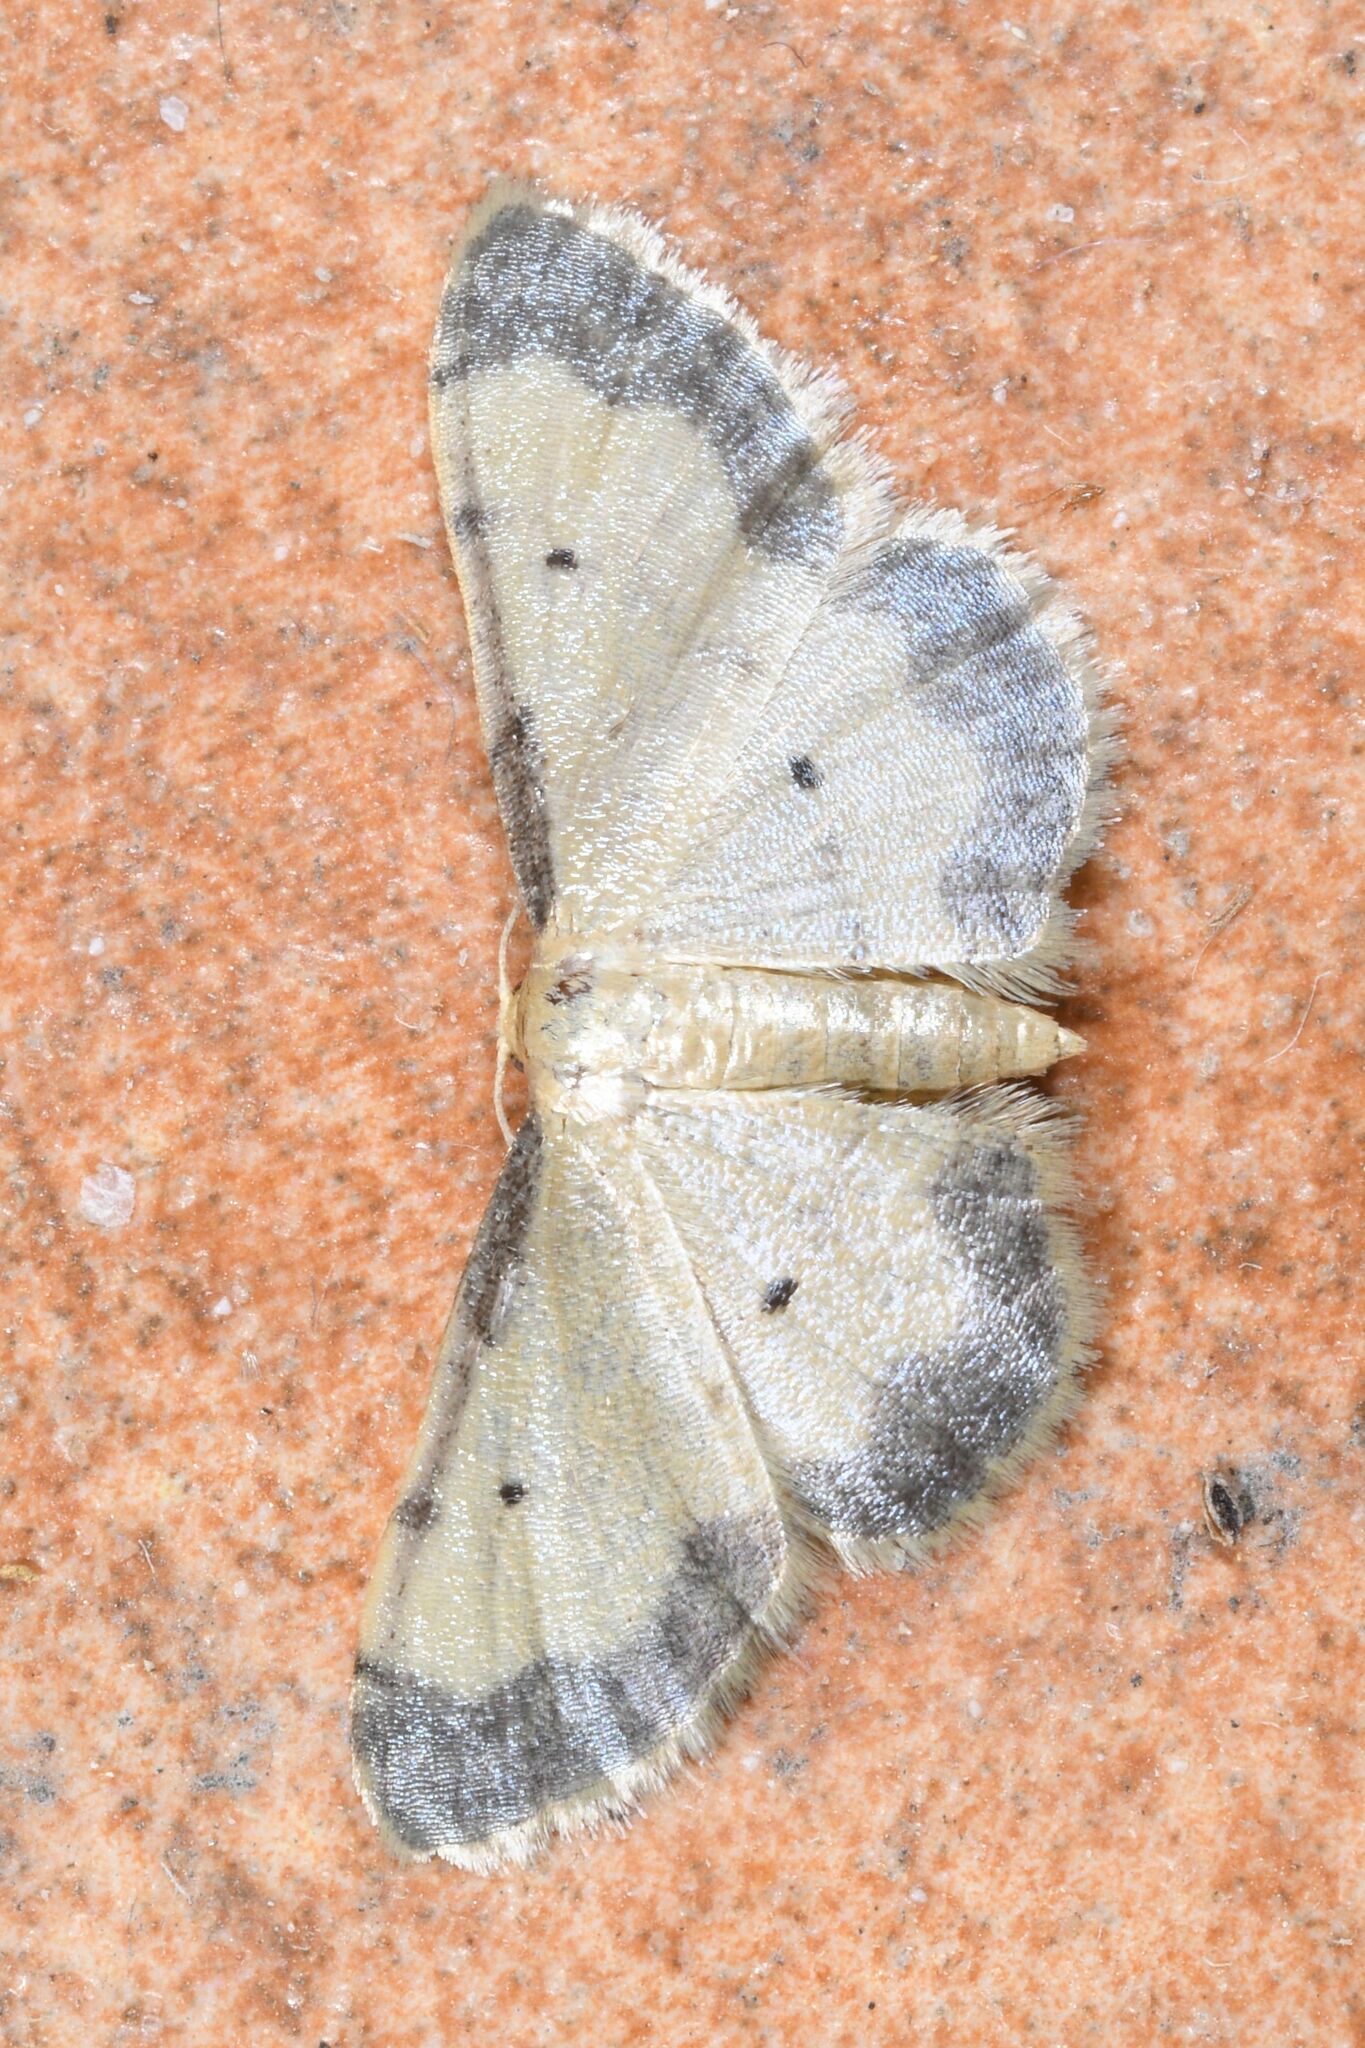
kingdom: Animalia
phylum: Arthropoda
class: Insecta
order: Lepidoptera
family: Geometridae
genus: Idaea
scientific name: Idaea politaria
